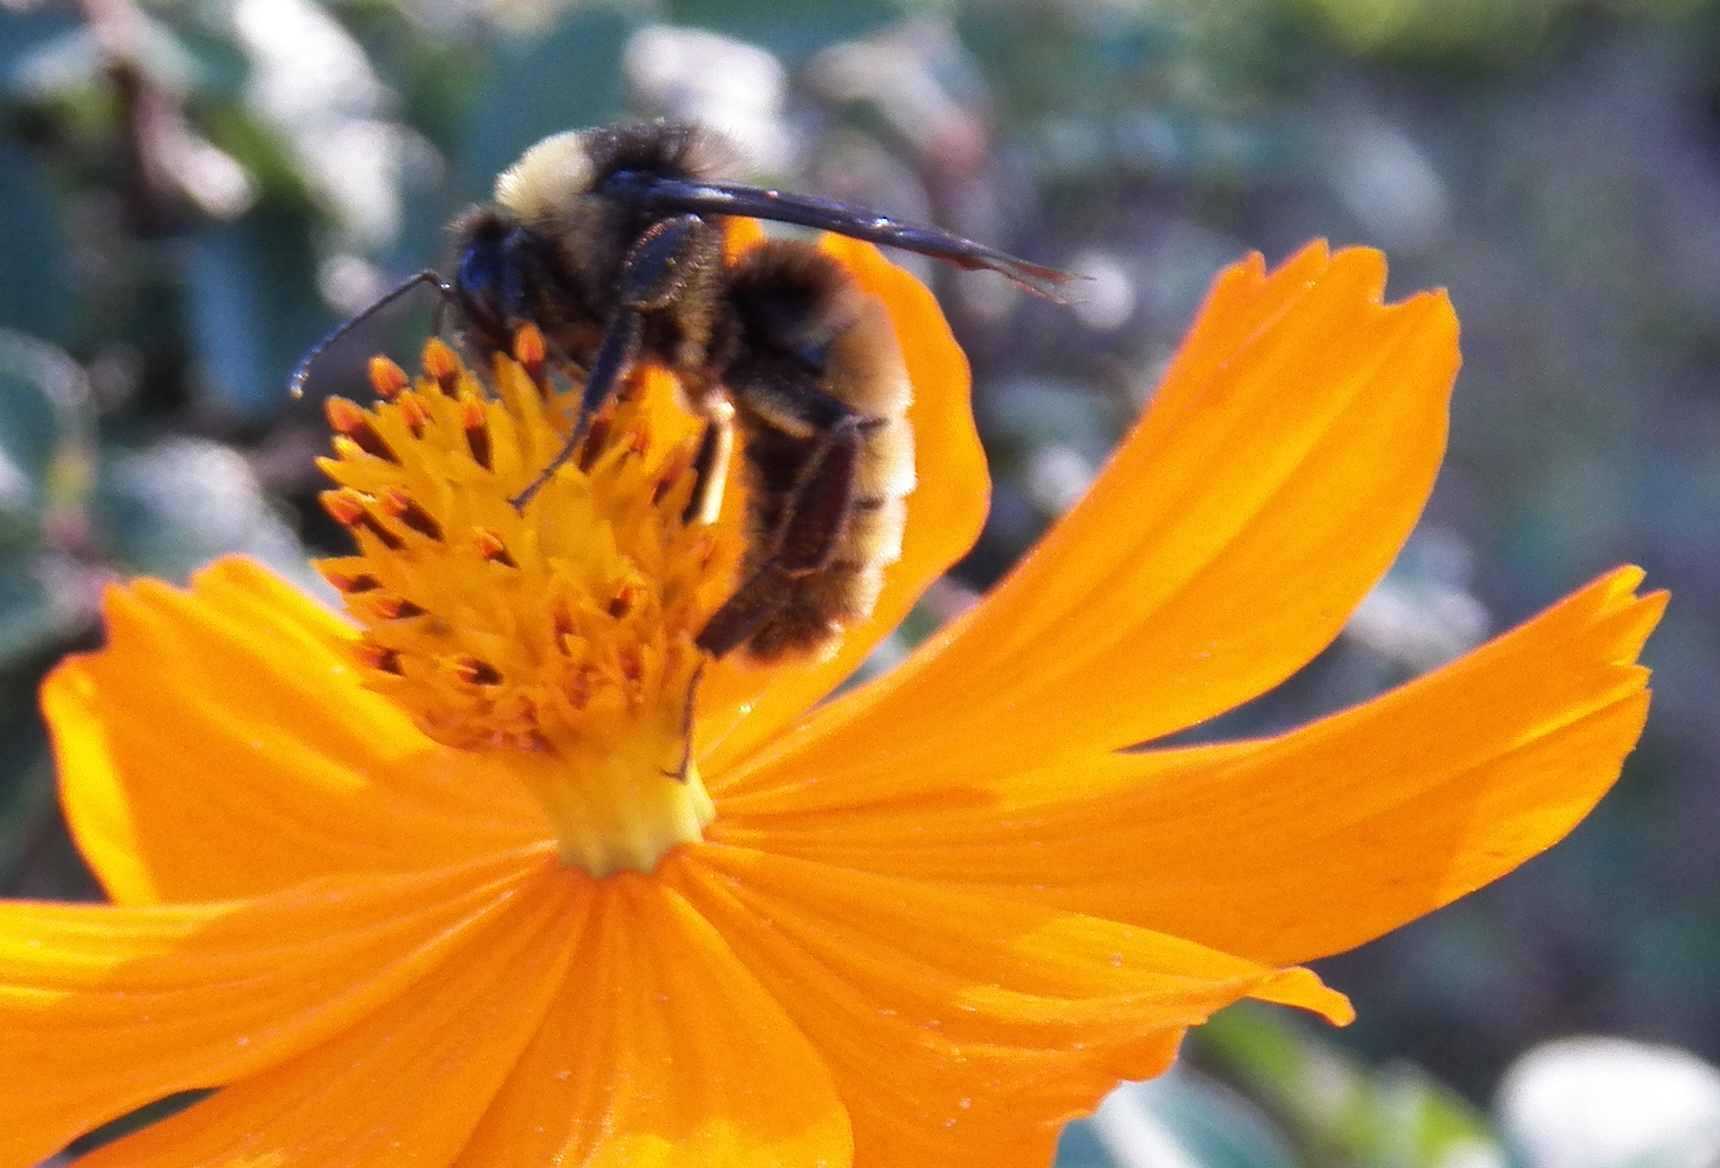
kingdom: Animalia
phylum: Arthropoda
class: Insecta
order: Hymenoptera
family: Apidae
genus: Bombus
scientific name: Bombus pensylvanicus
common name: Bumble bee
